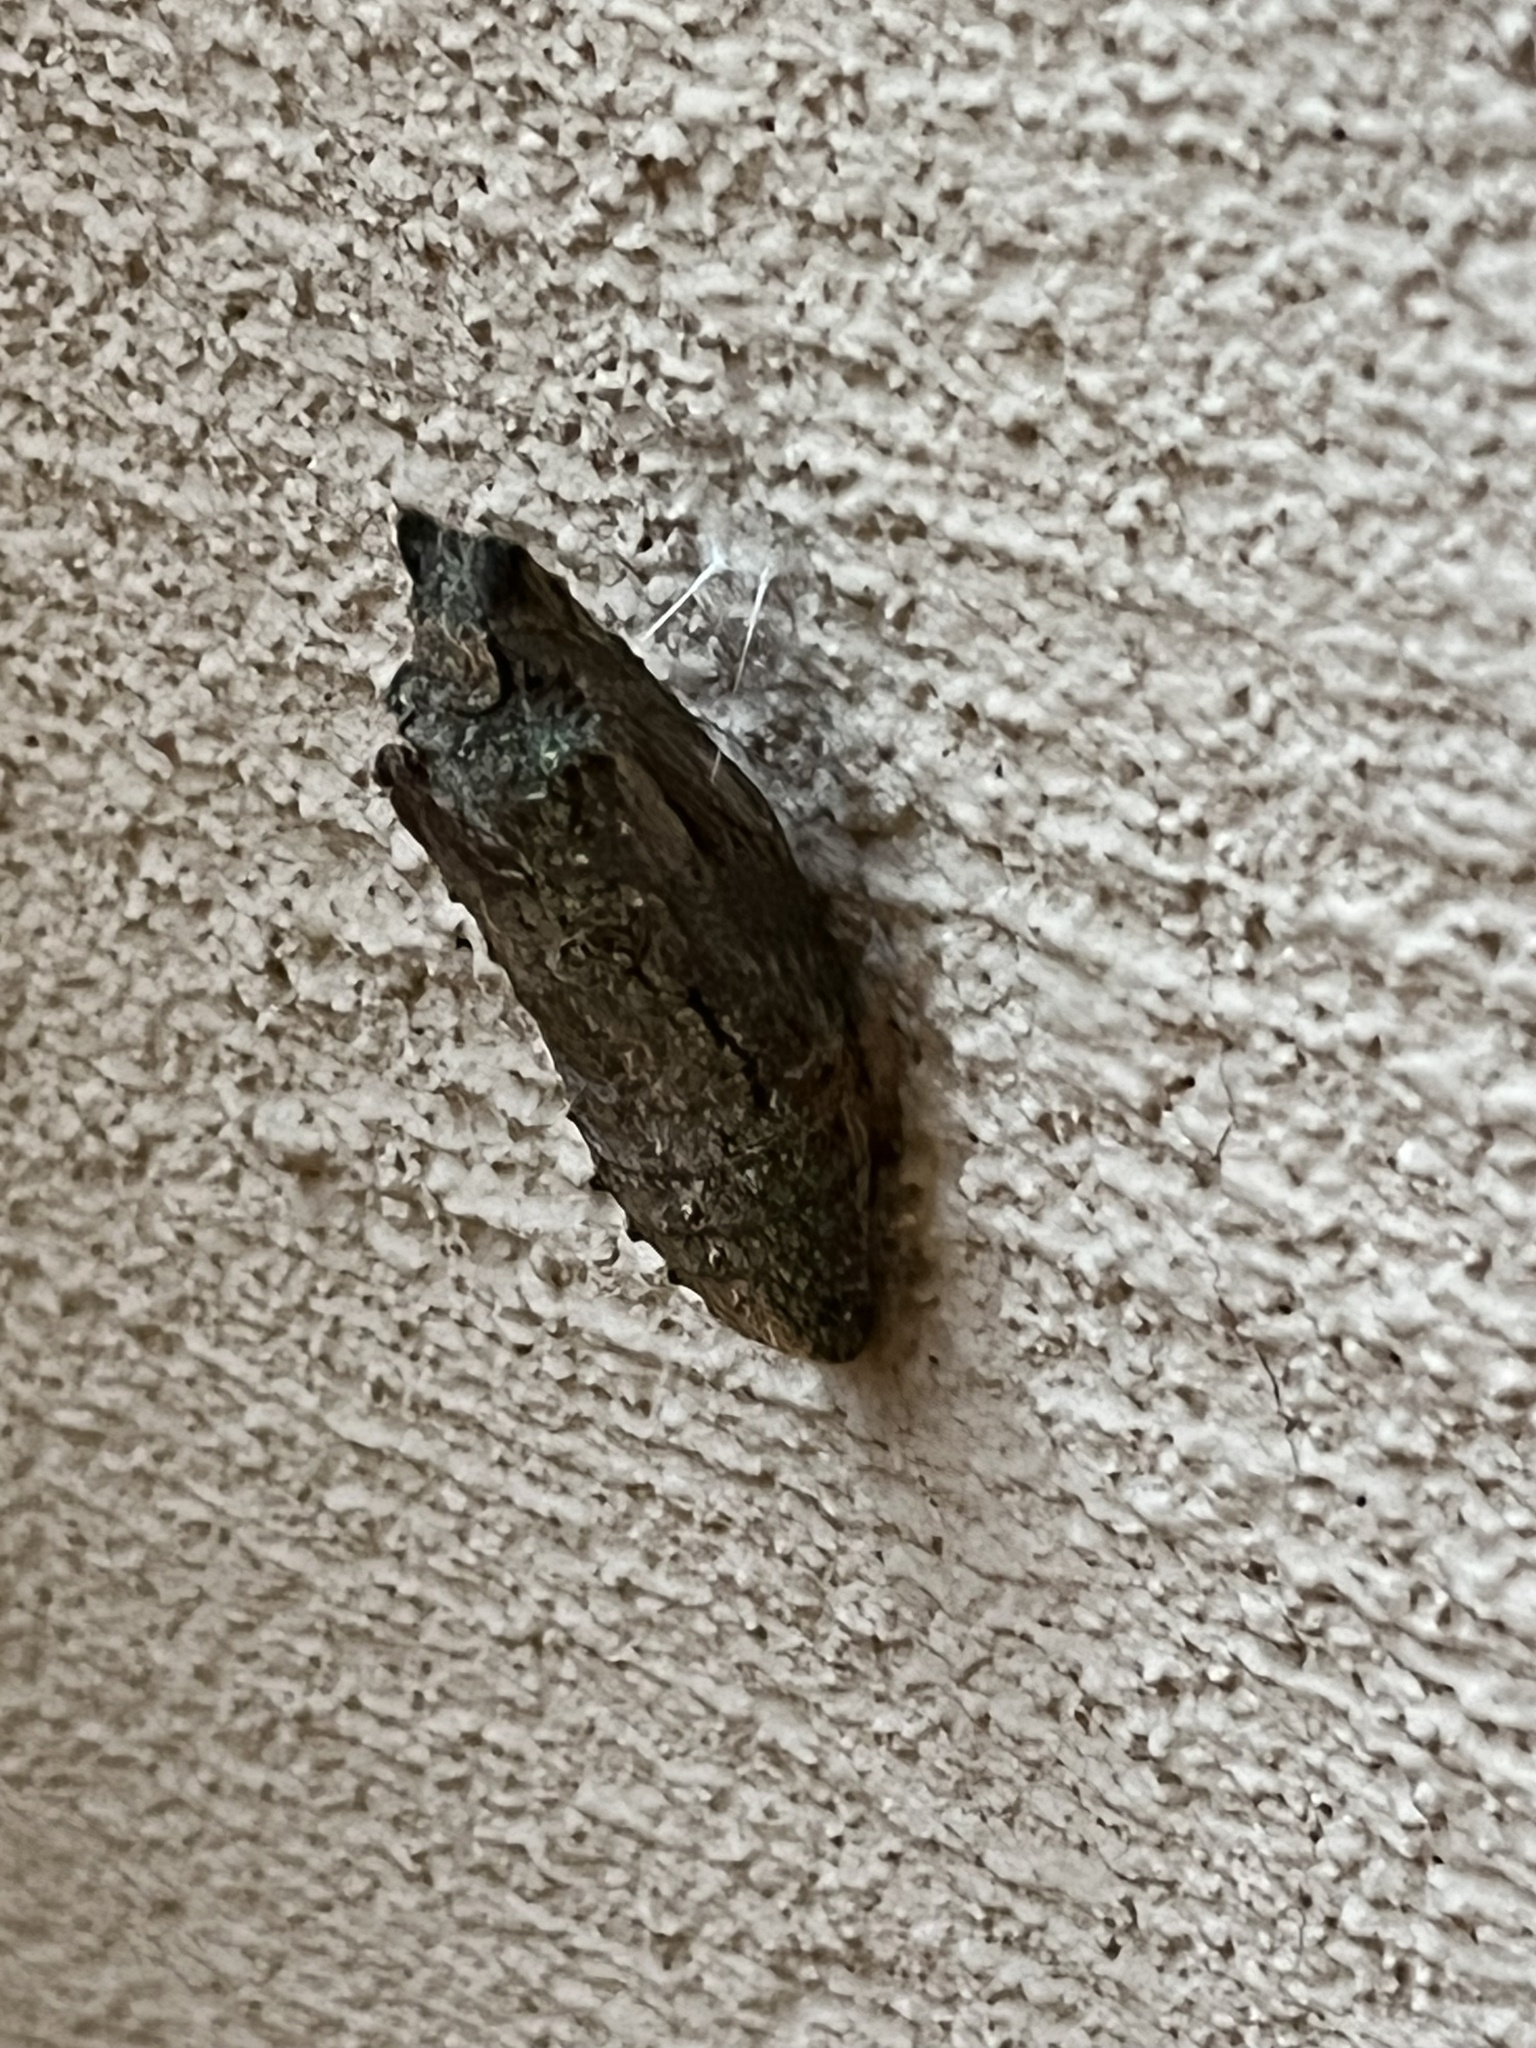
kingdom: Animalia
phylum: Arthropoda
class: Insecta
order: Lepidoptera
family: Papilionidae
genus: Papilio
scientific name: Papilio multicaudata
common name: Two-tailed tiger swallowtail
